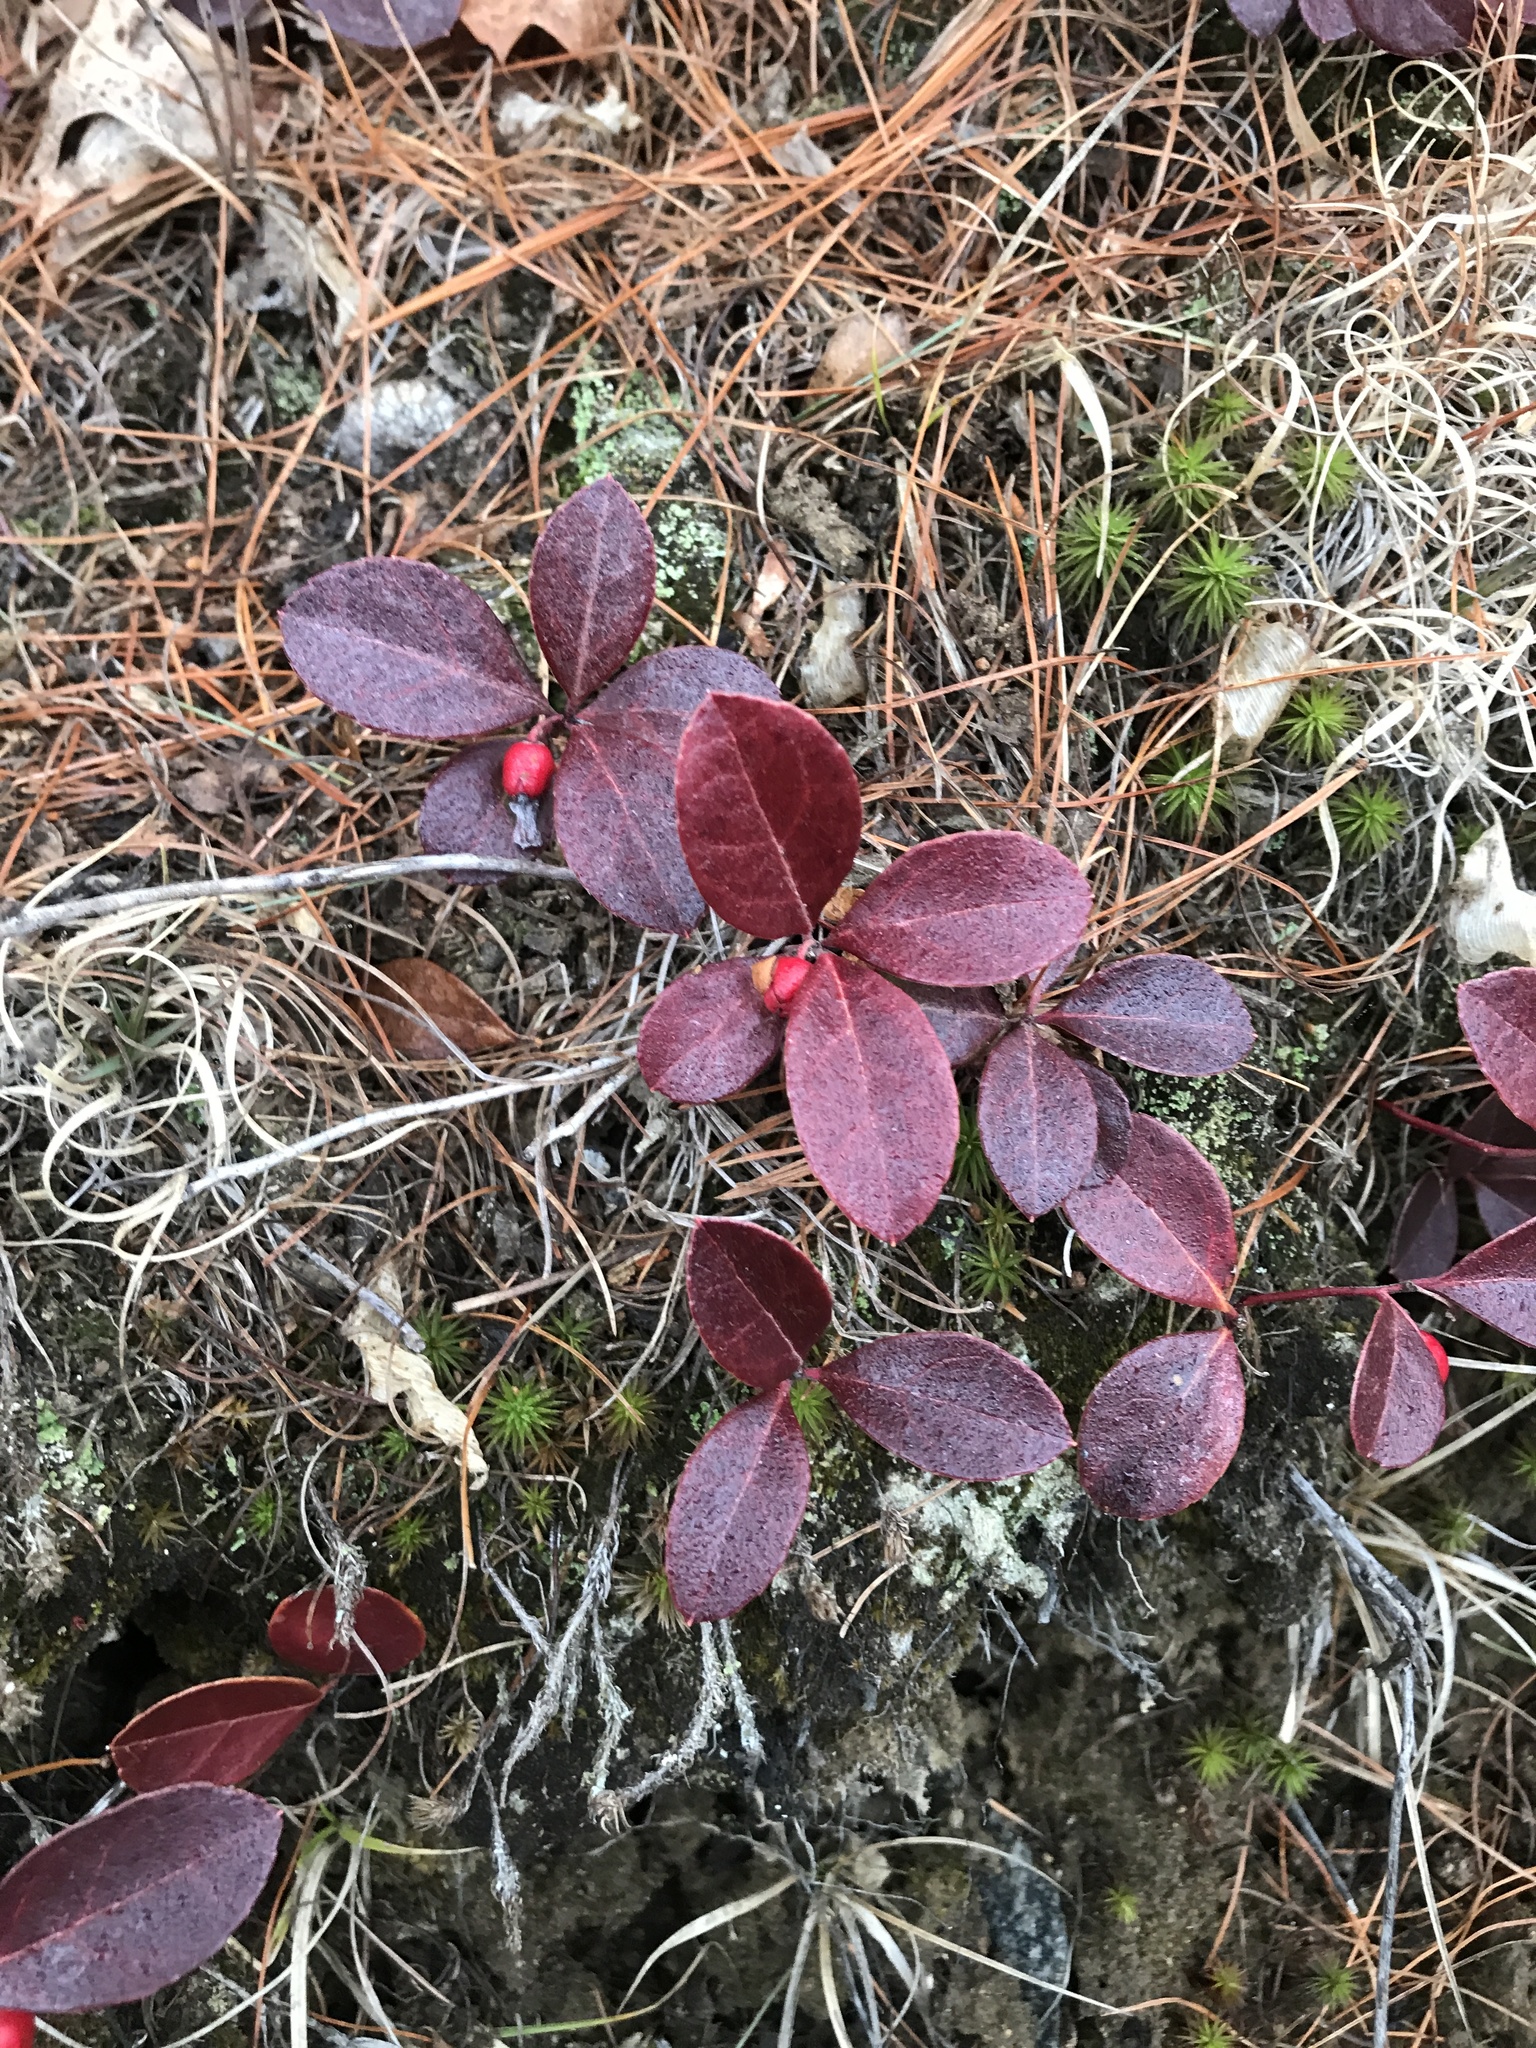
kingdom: Plantae
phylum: Tracheophyta
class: Magnoliopsida
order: Ericales
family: Ericaceae
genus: Gaultheria
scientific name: Gaultheria procumbens
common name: Checkerberry
